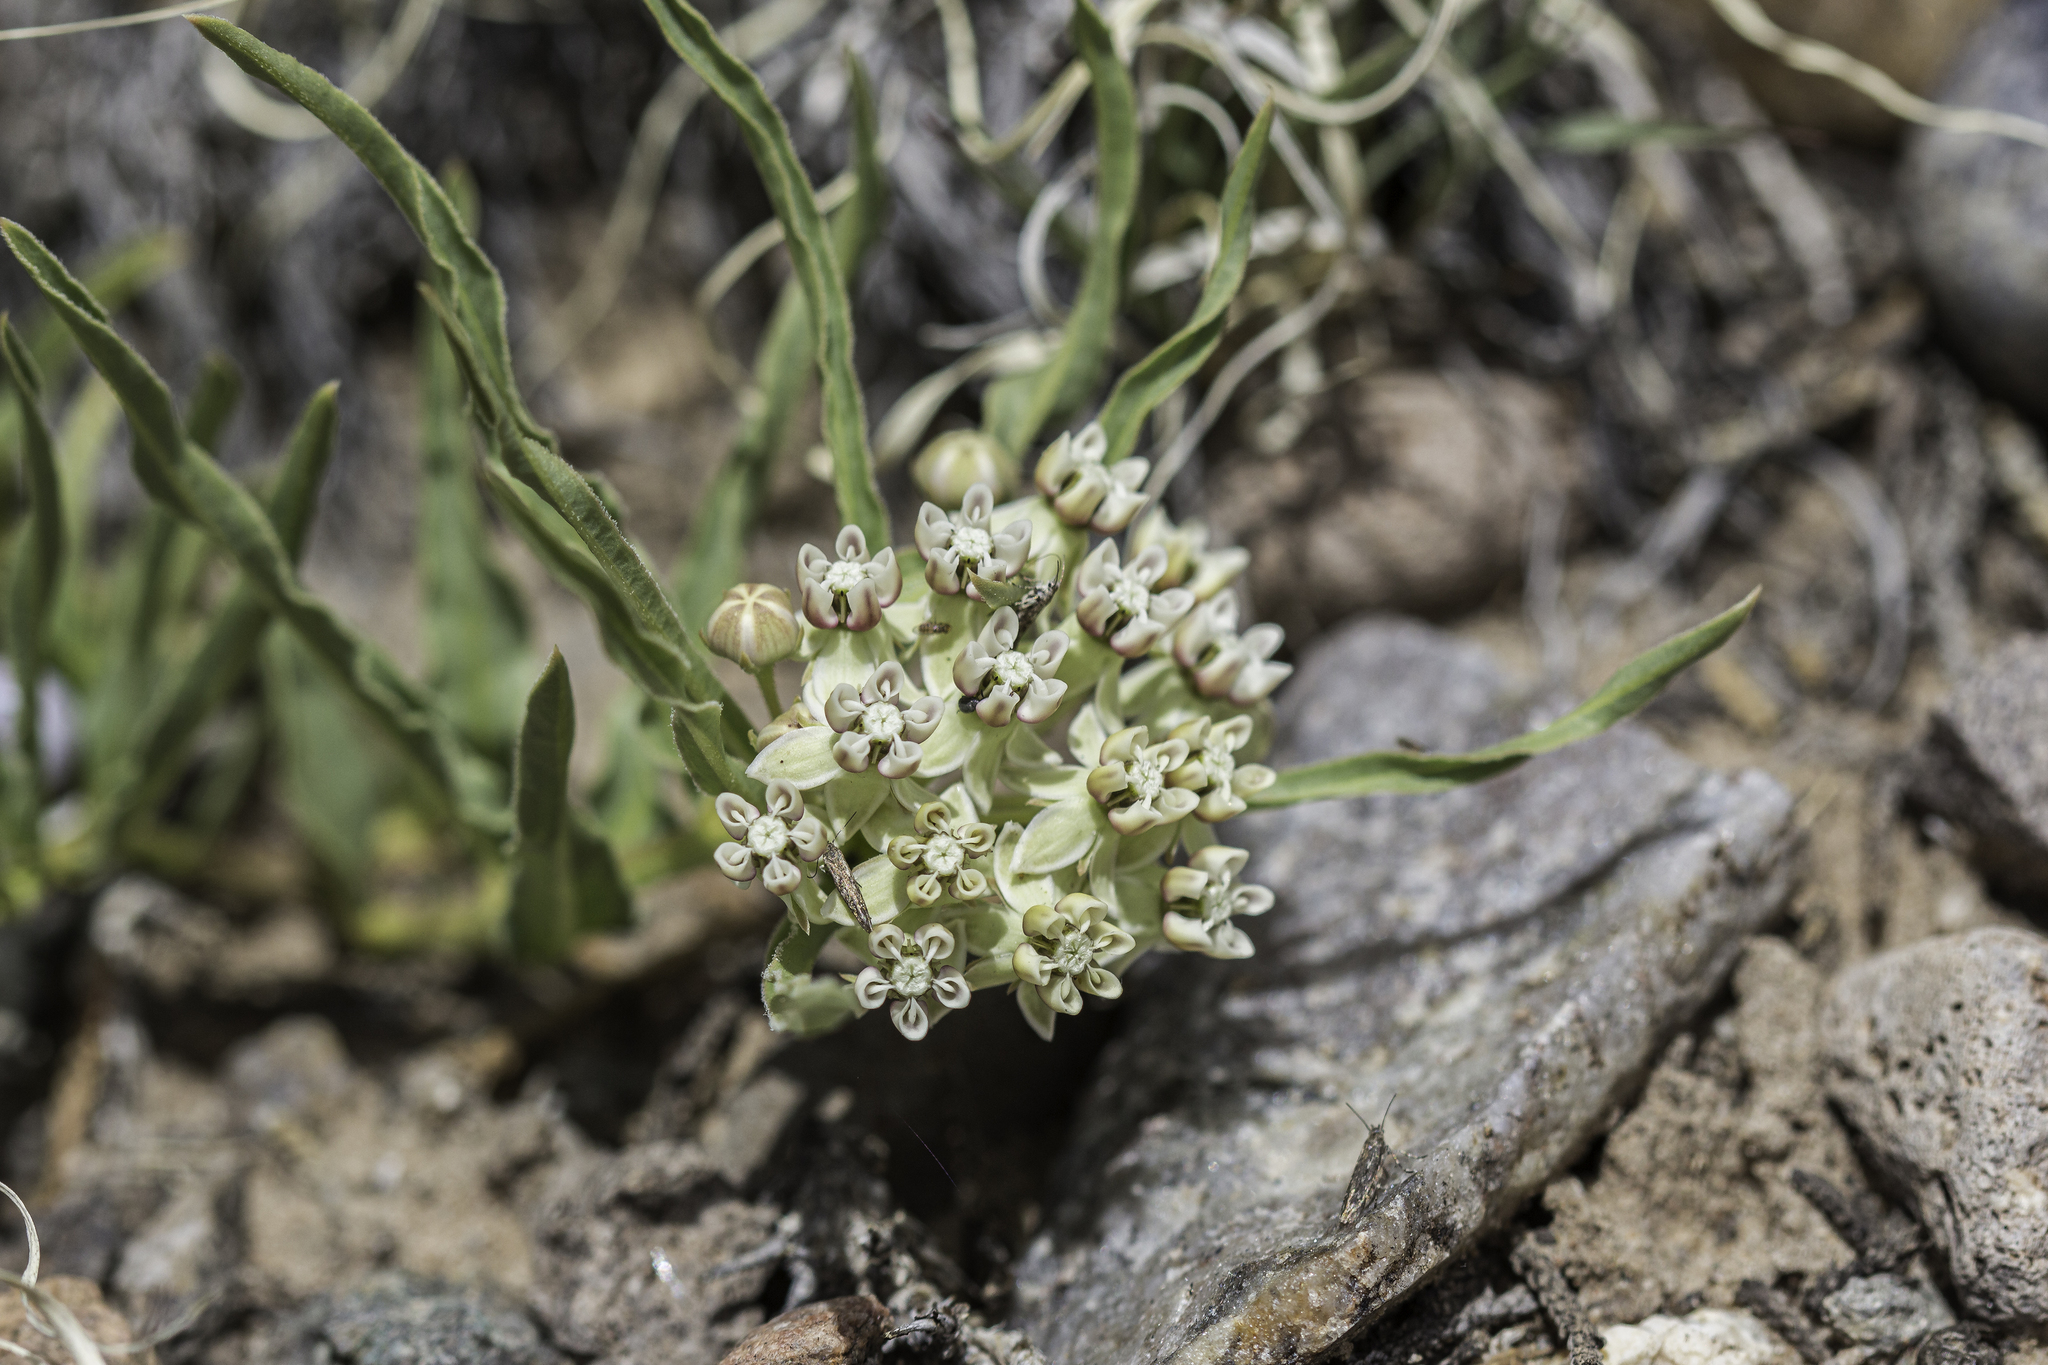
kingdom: Plantae
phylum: Tracheophyta
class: Magnoliopsida
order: Gentianales
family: Apocynaceae
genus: Asclepias
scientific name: Asclepias involucrata
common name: Dwarf milkweed
